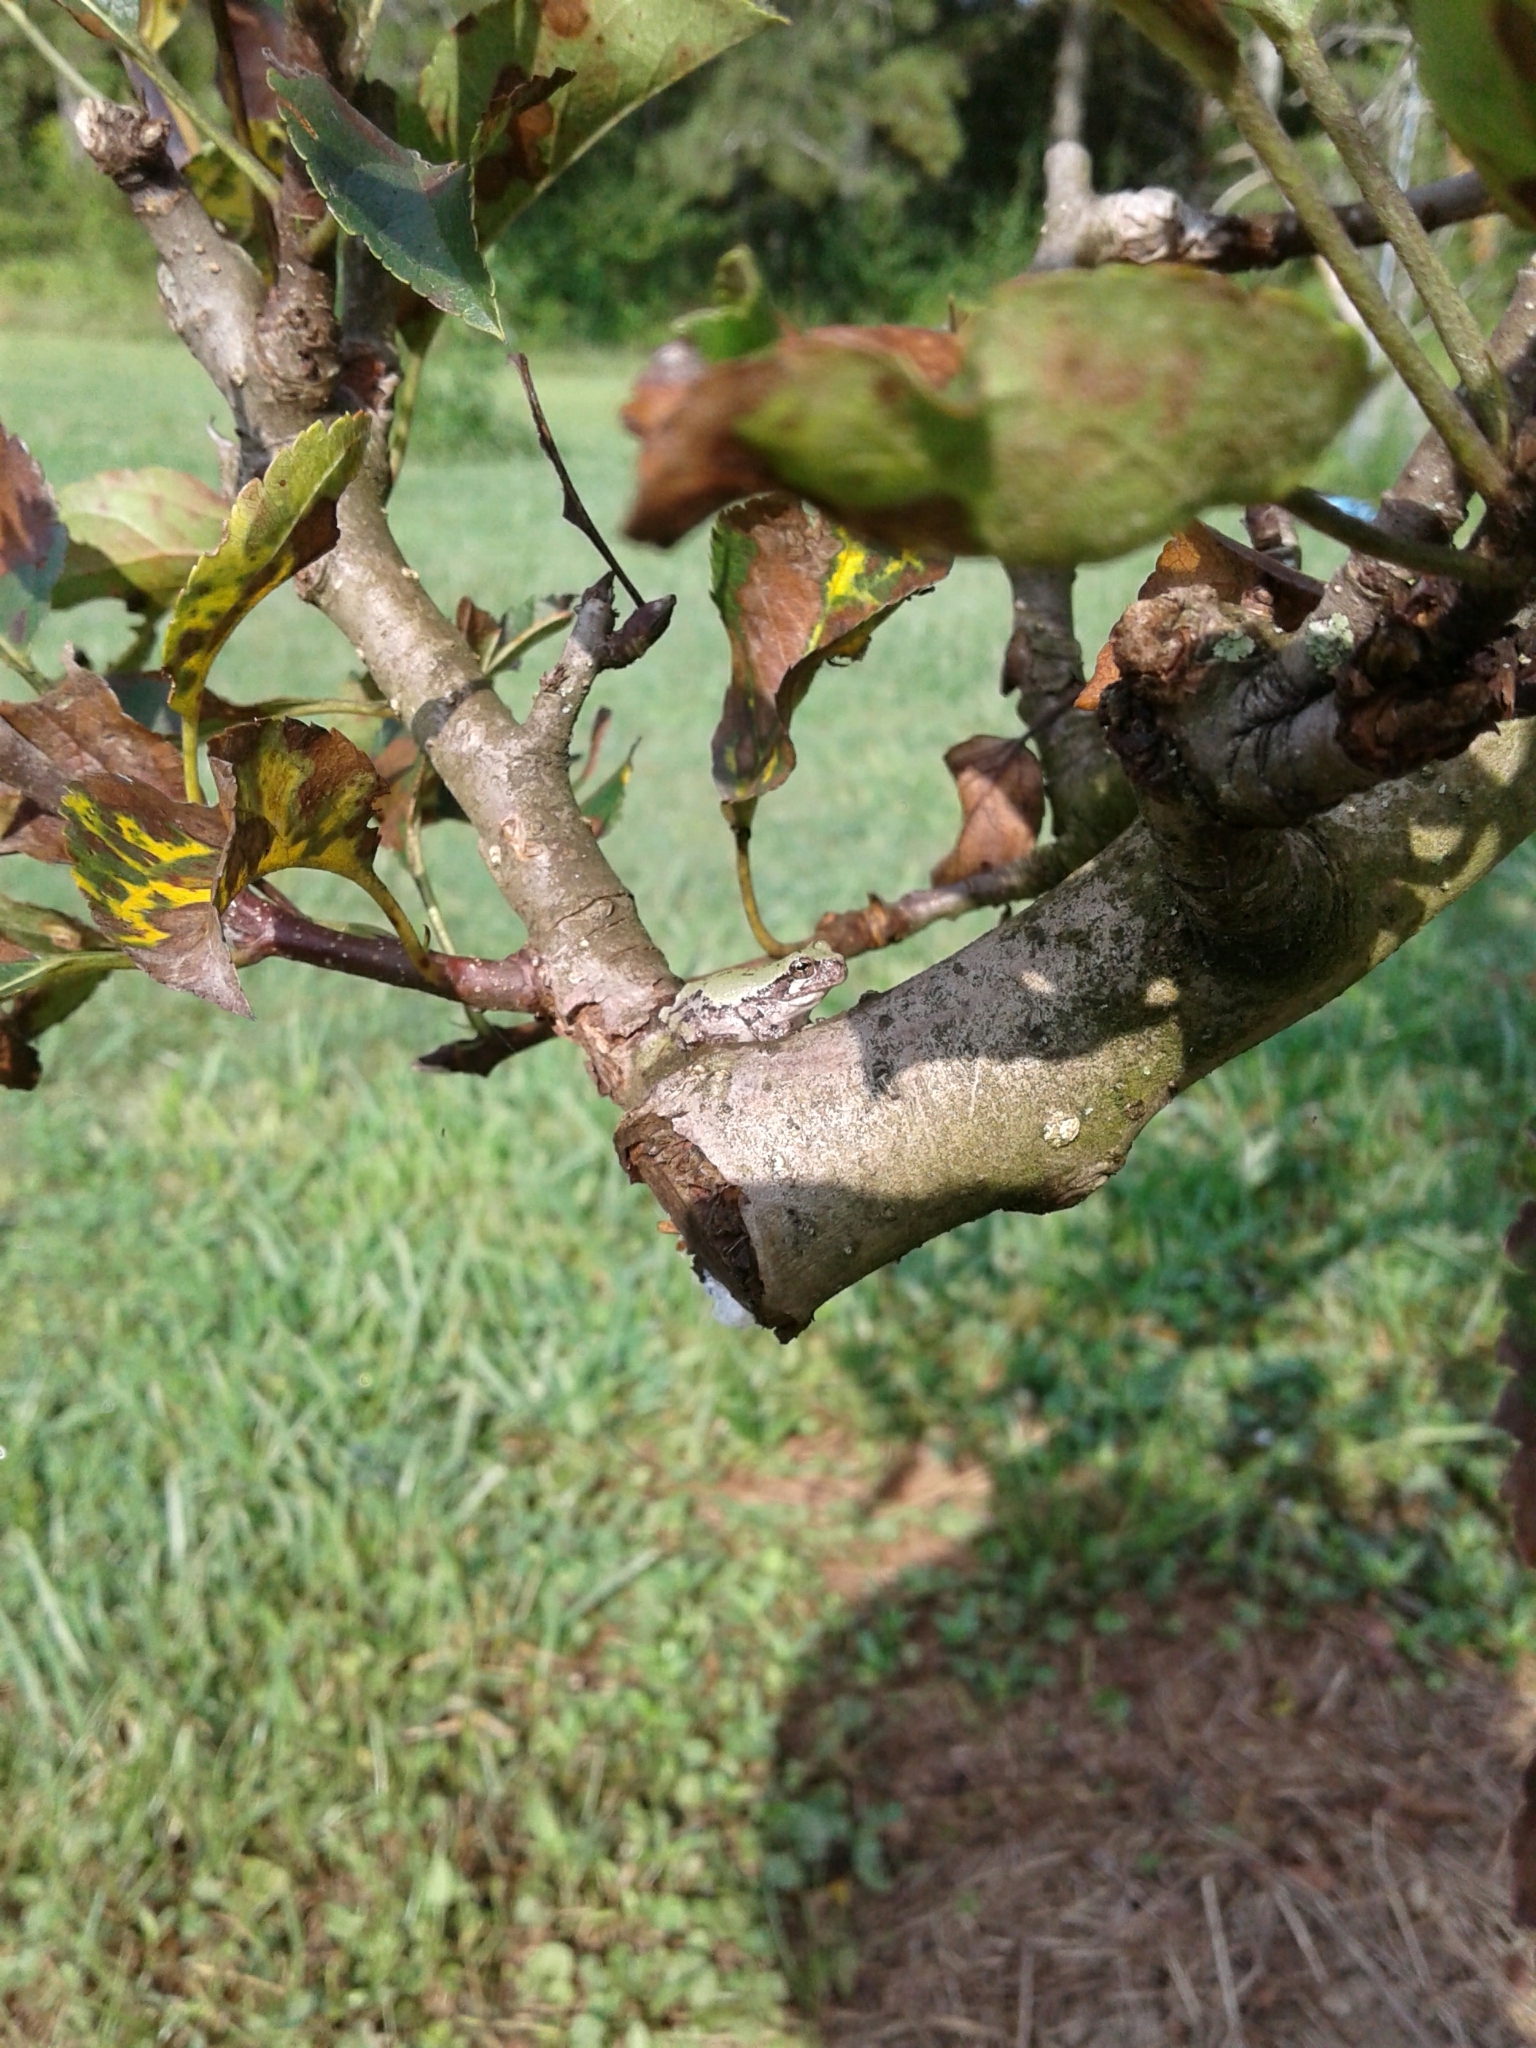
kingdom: Animalia
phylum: Chordata
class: Amphibia
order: Anura
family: Hylidae
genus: Dryophytes
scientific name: Dryophytes chrysoscelis
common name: Cope's gray treefrog
